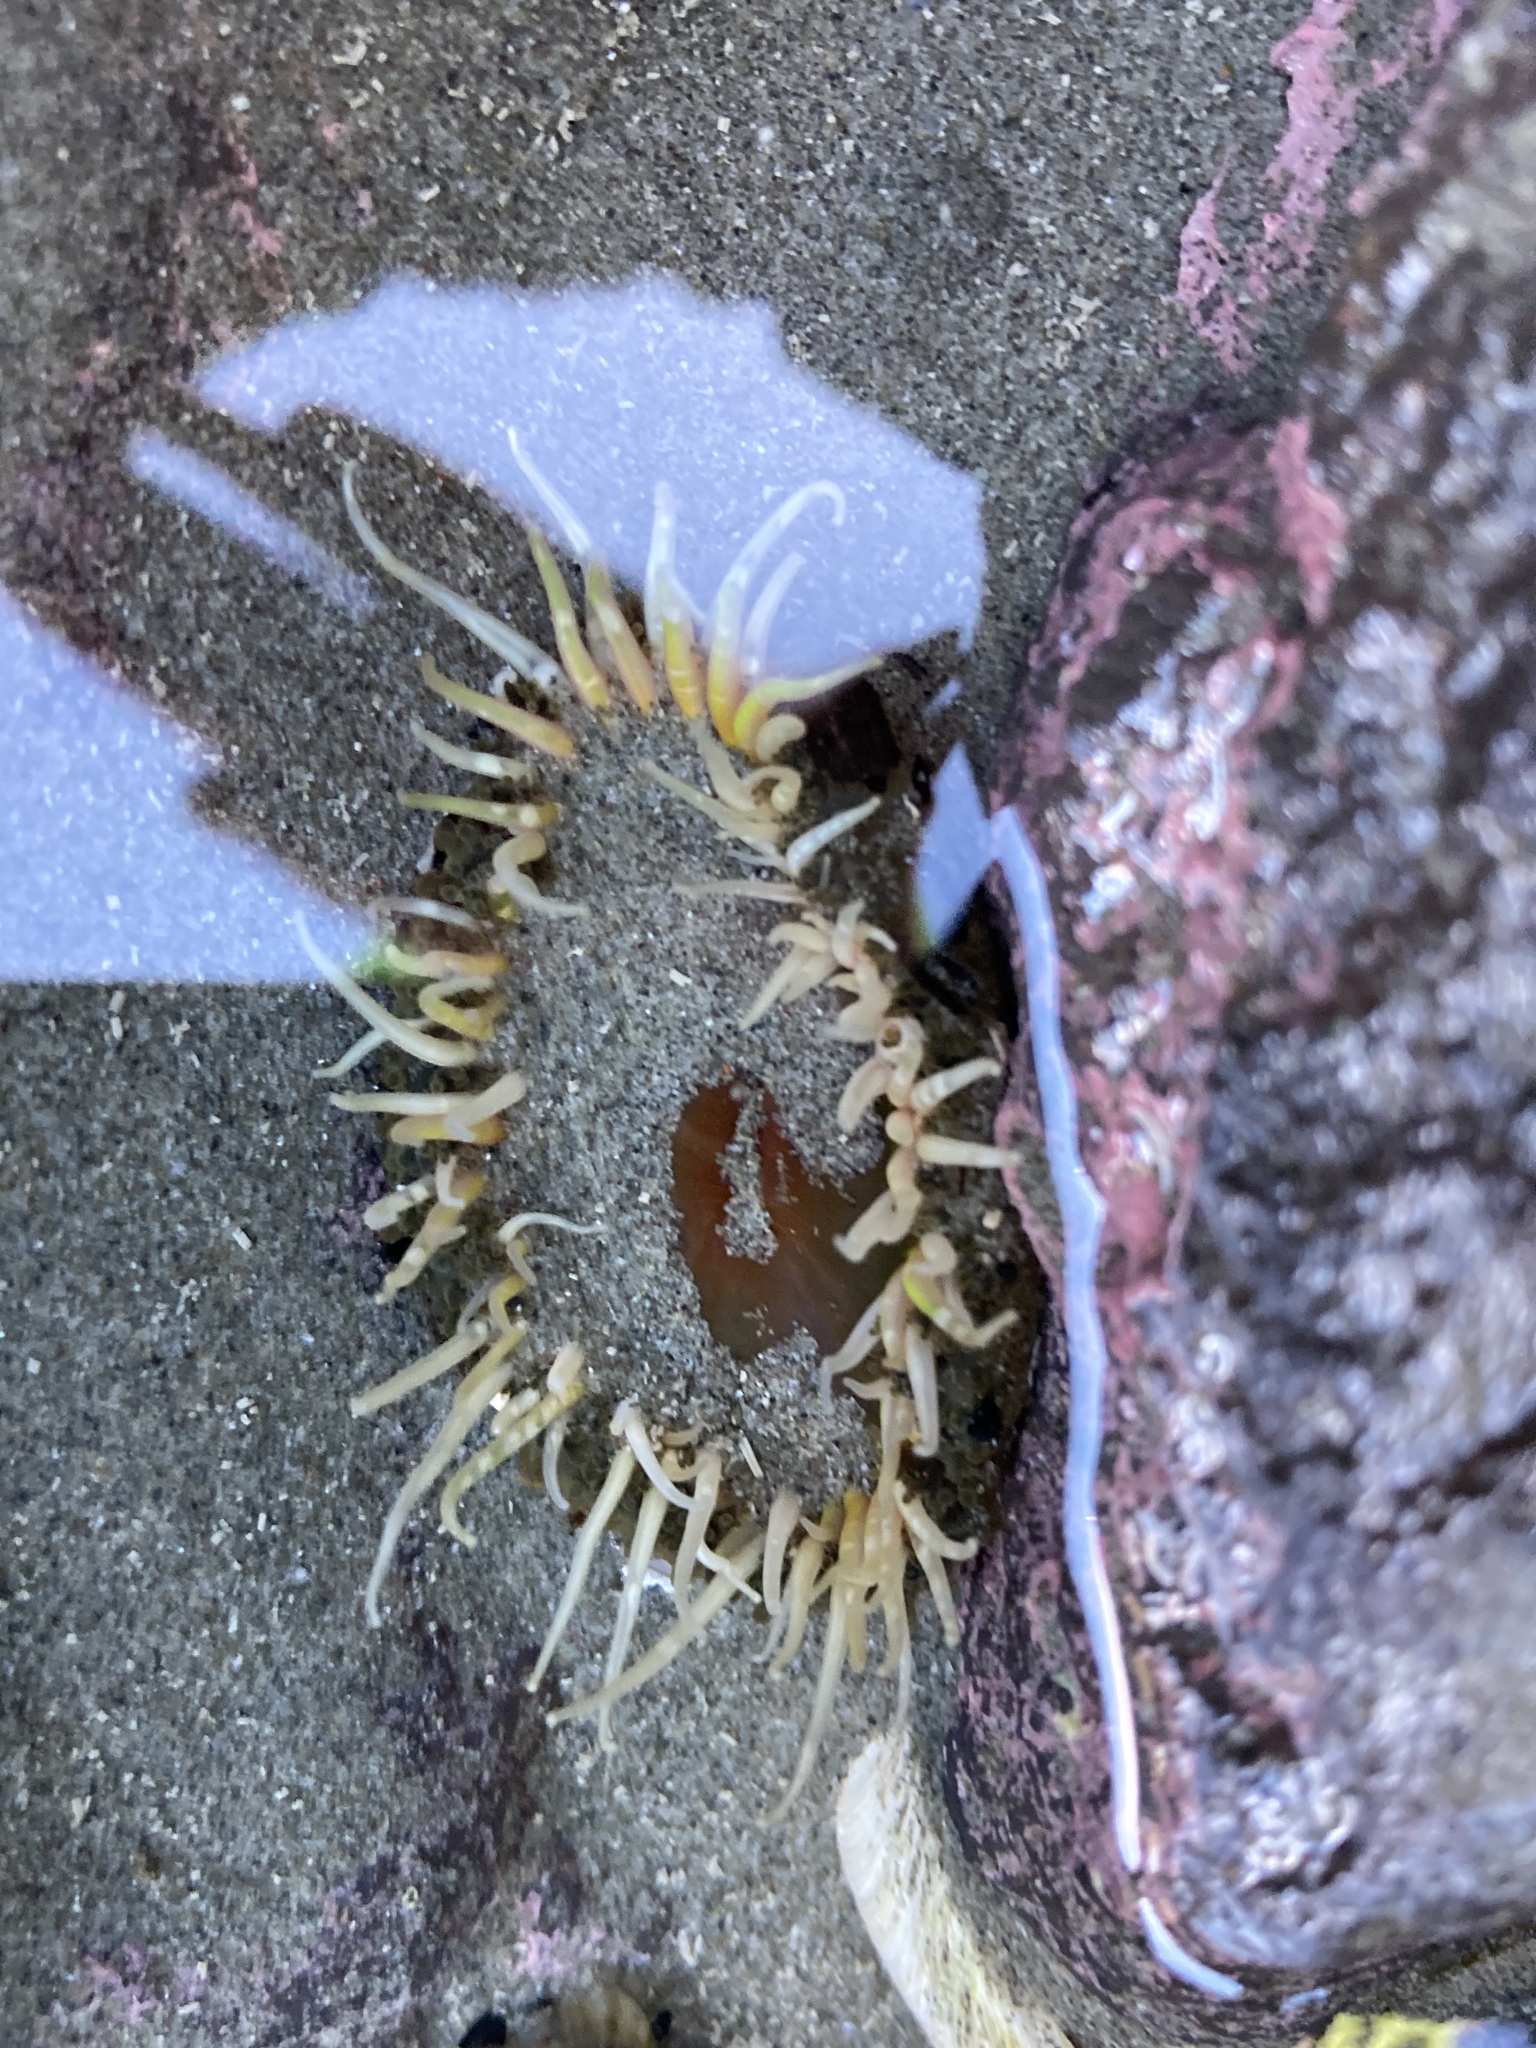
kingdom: Animalia
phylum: Cnidaria
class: Anthozoa
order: Actiniaria
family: Actiniidae
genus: Oulactis
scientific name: Oulactis muscosa
